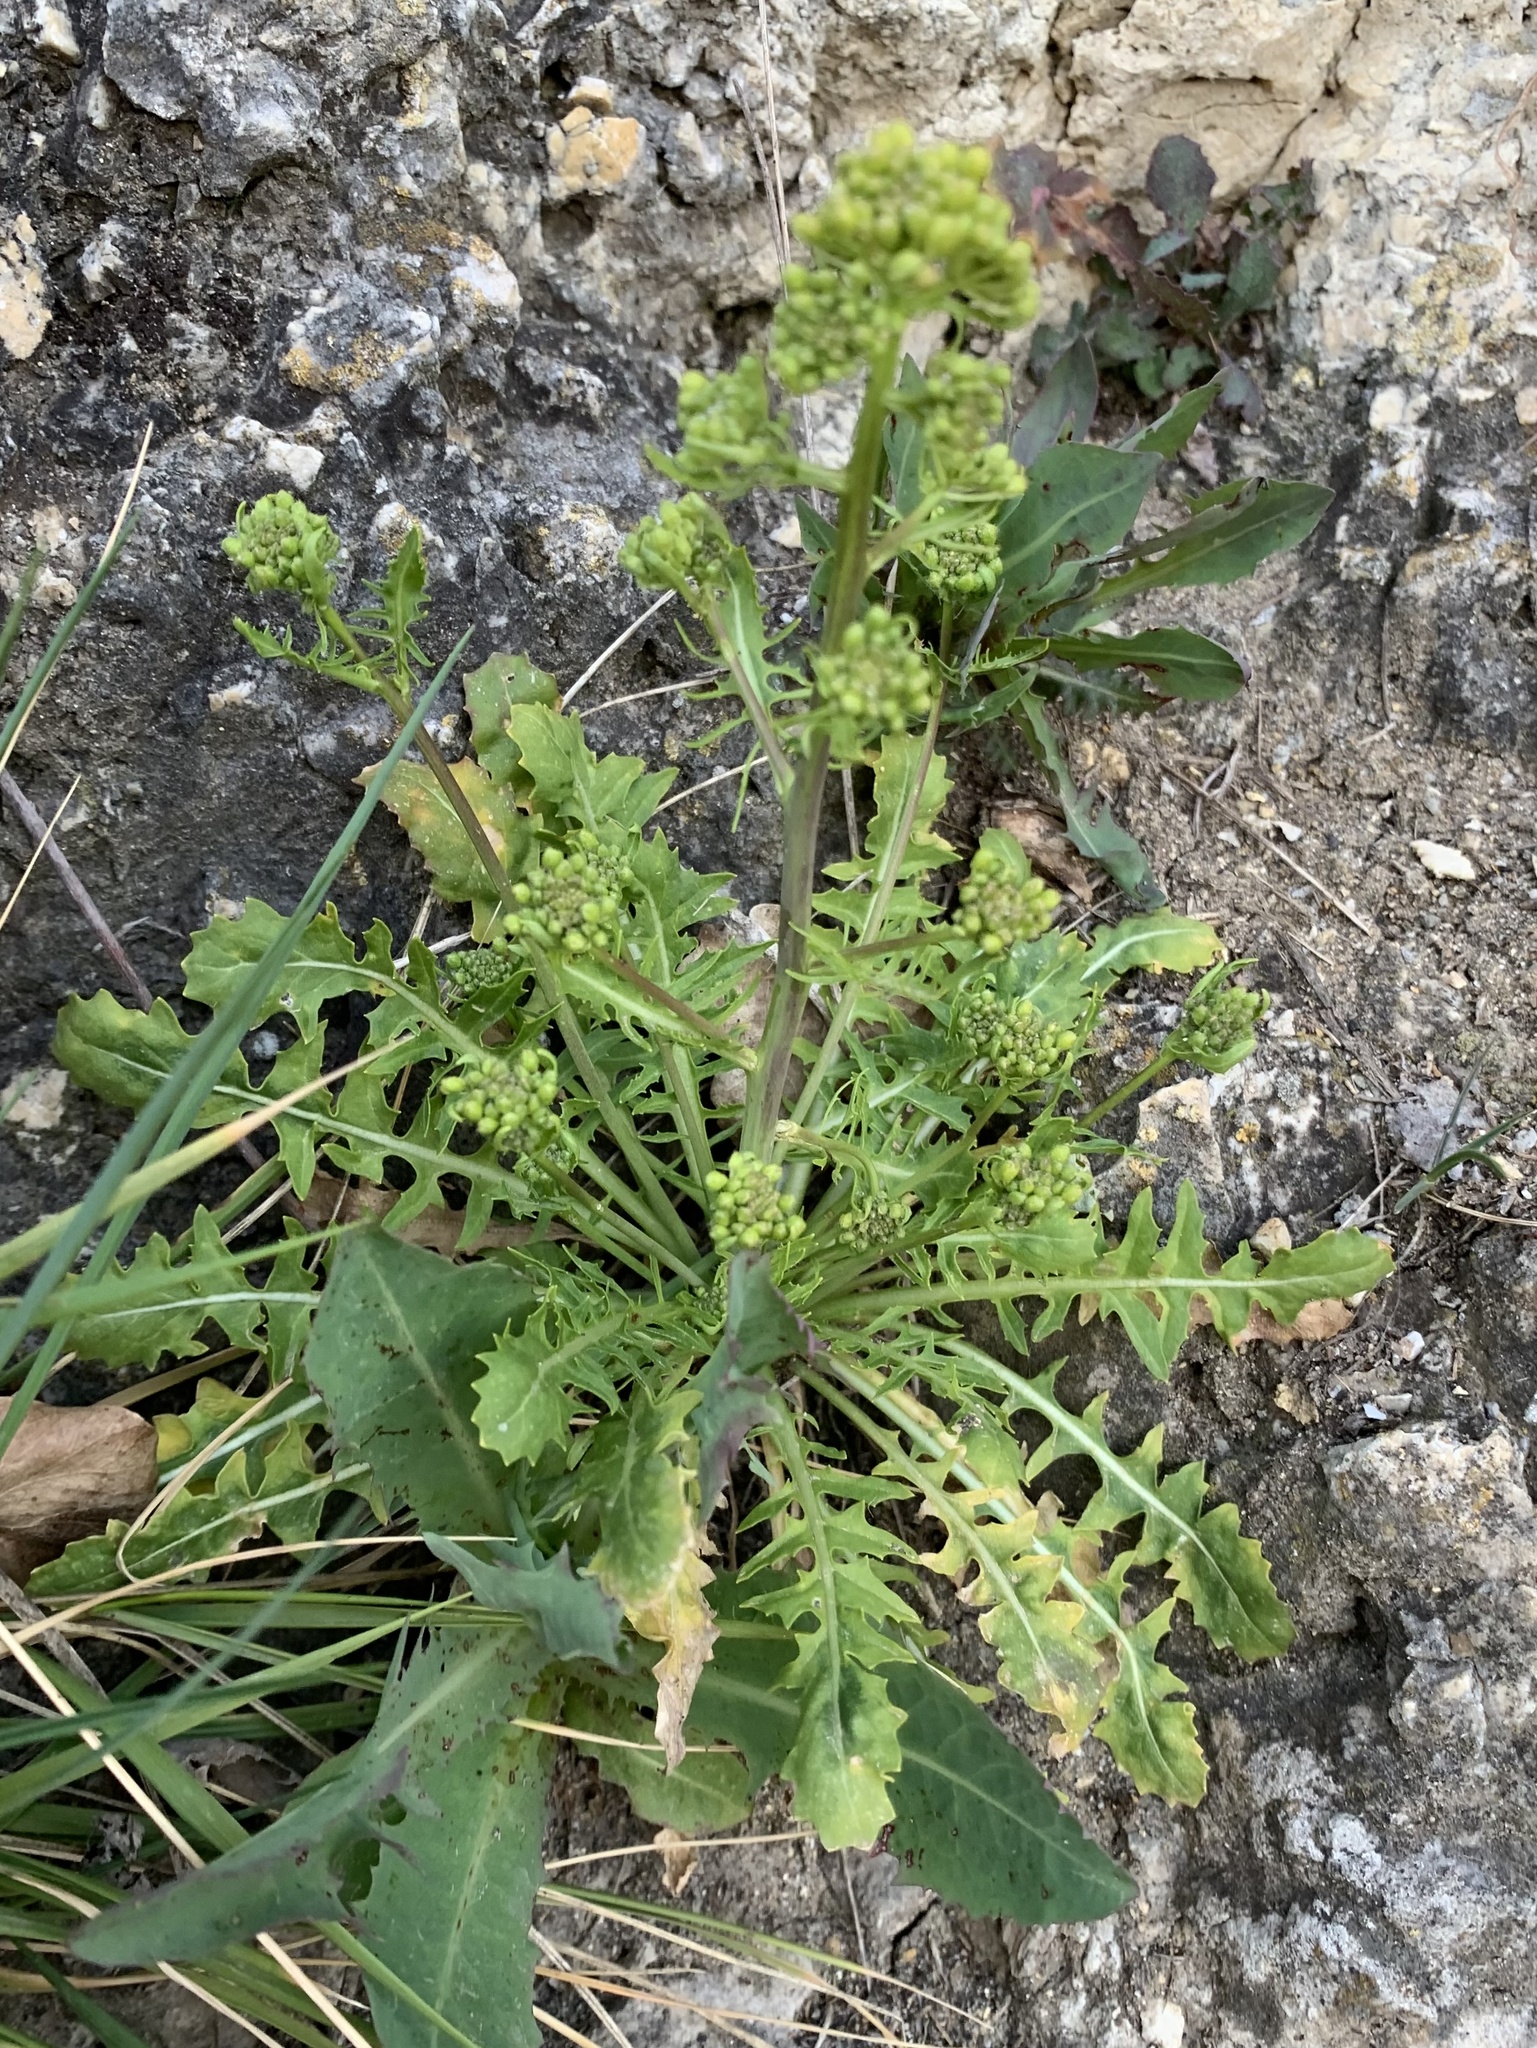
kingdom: Plantae
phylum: Tracheophyta
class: Magnoliopsida
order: Brassicales
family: Brassicaceae
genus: Sisymbrium
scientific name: Sisymbrium austriacum
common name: Jeweled rocket
